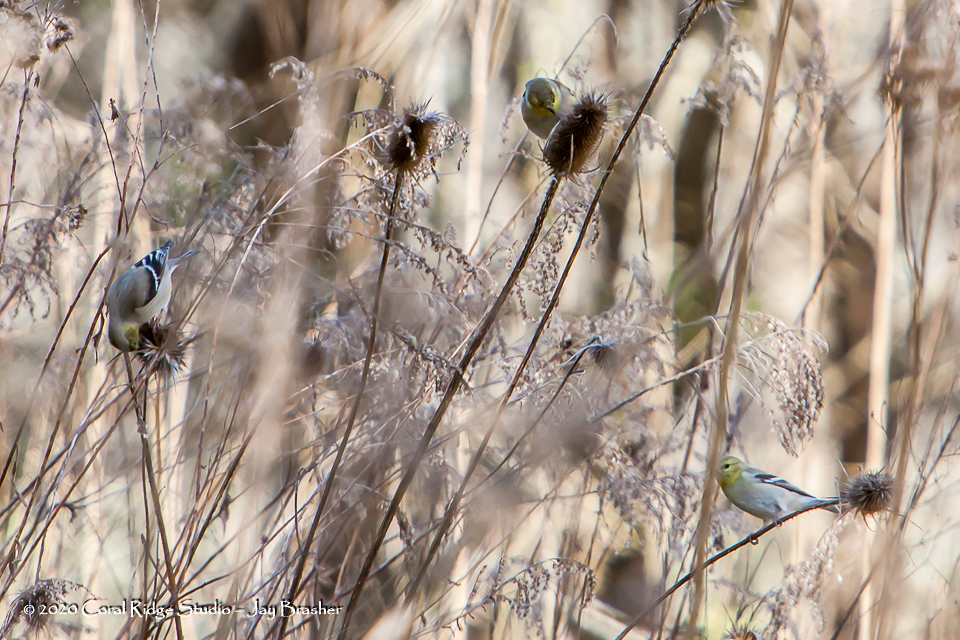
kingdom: Animalia
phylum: Chordata
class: Aves
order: Passeriformes
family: Fringillidae
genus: Spinus
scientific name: Spinus tristis
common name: American goldfinch
